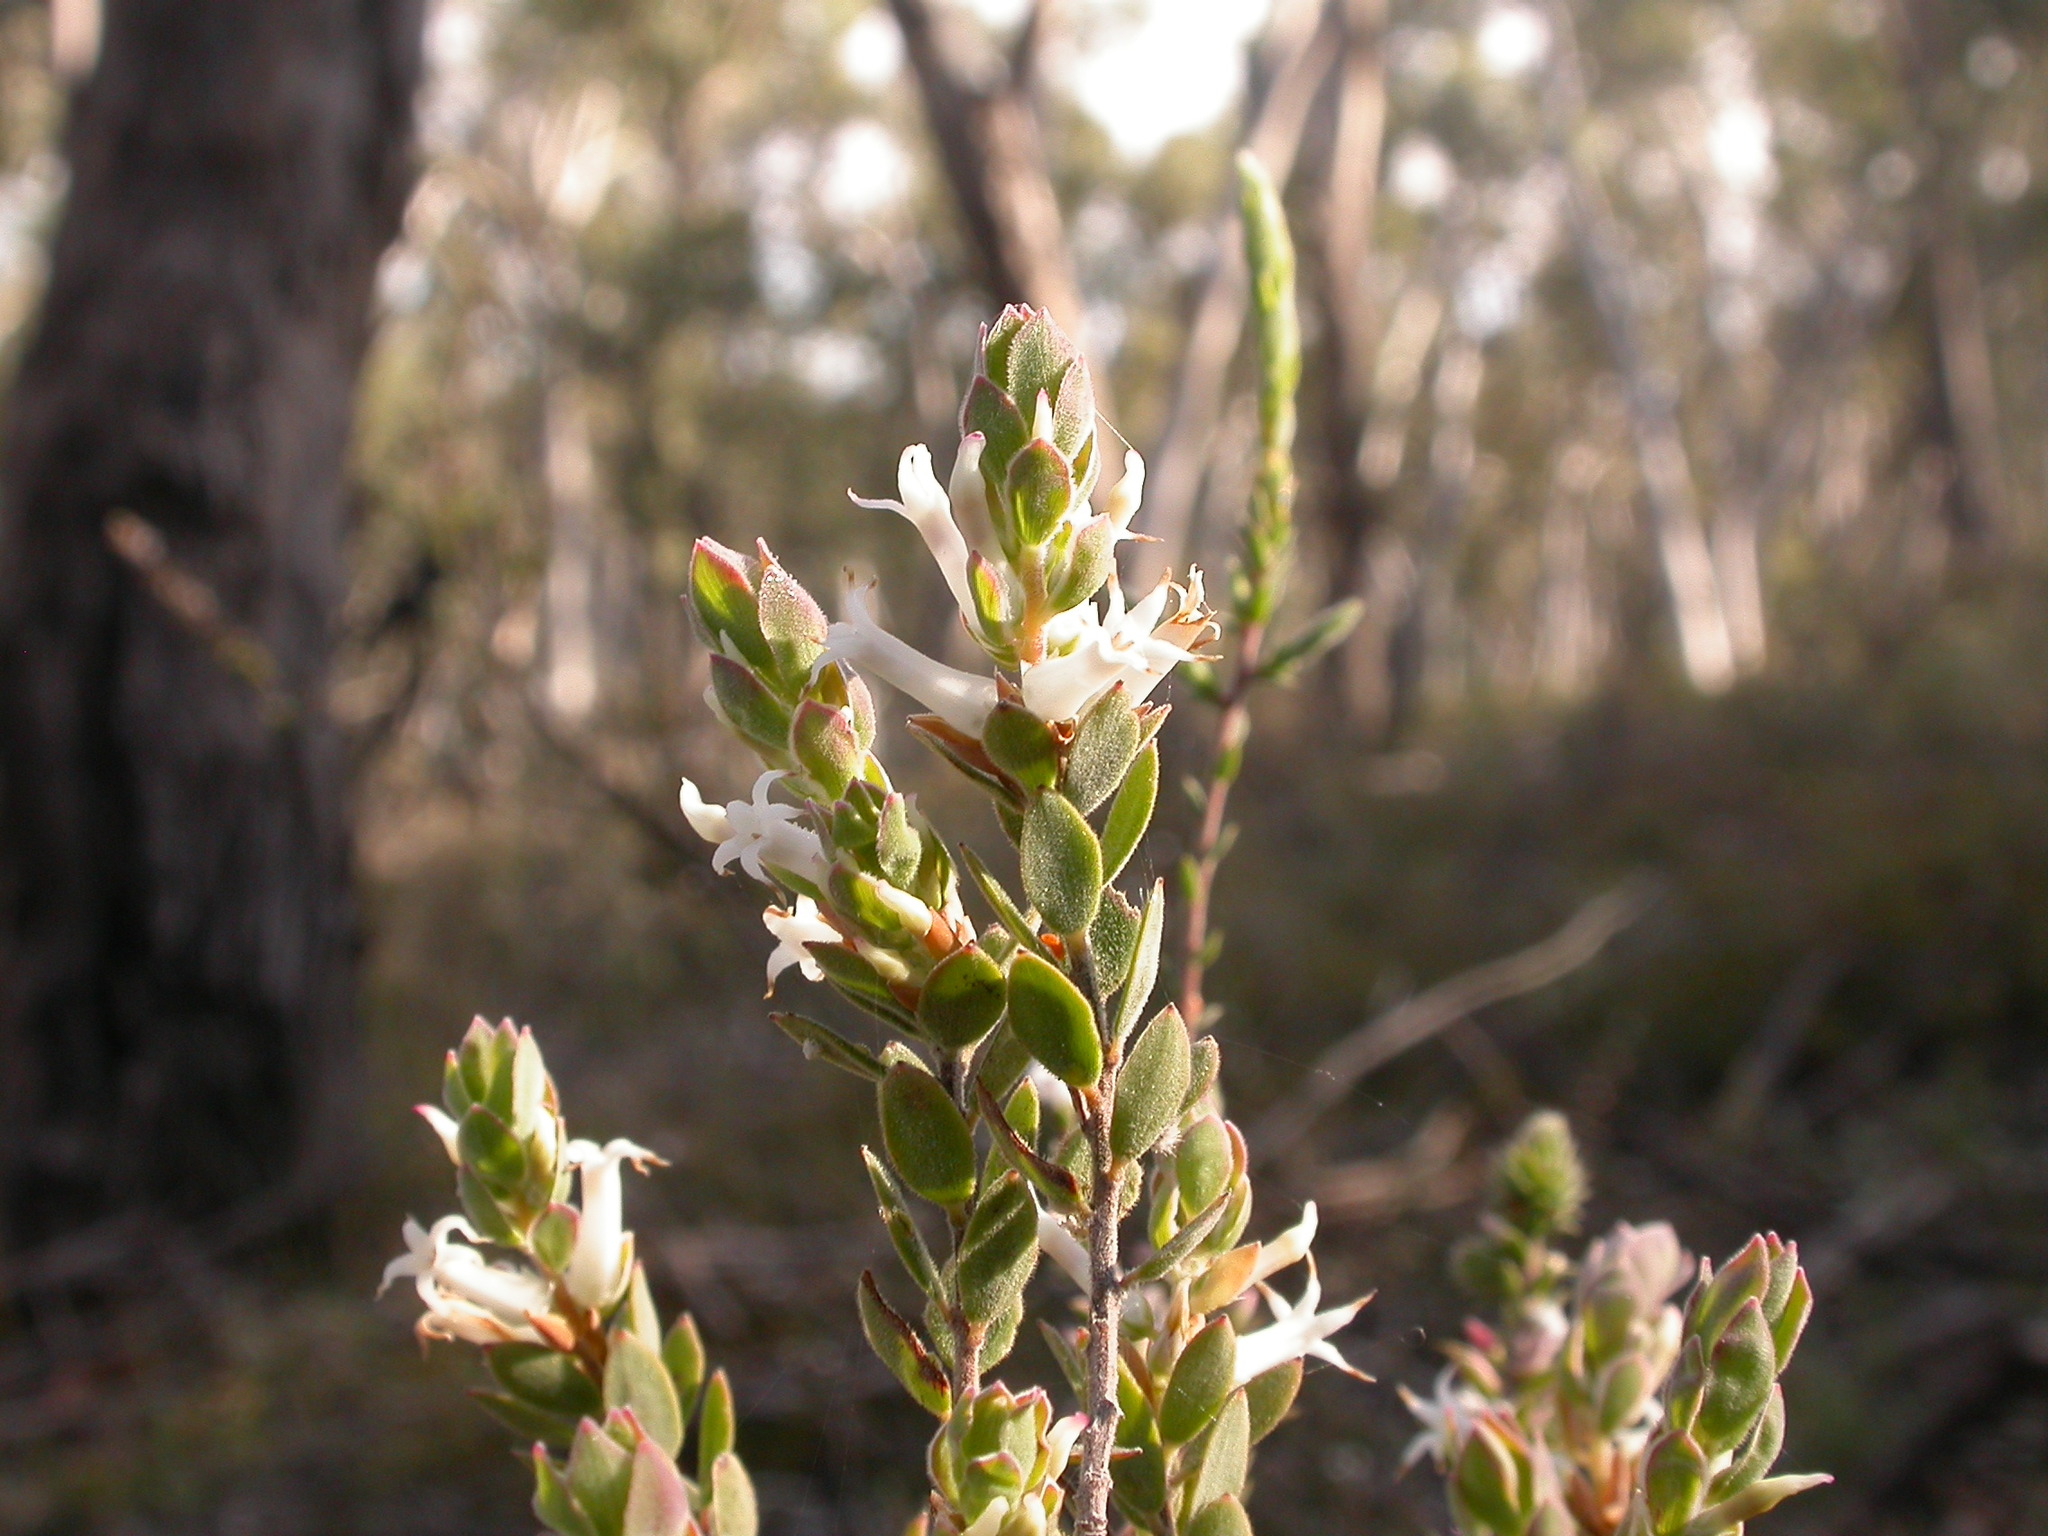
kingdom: Plantae
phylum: Tracheophyta
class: Magnoliopsida
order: Ericales
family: Ericaceae
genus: Brachyloma
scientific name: Brachyloma daphnoides
